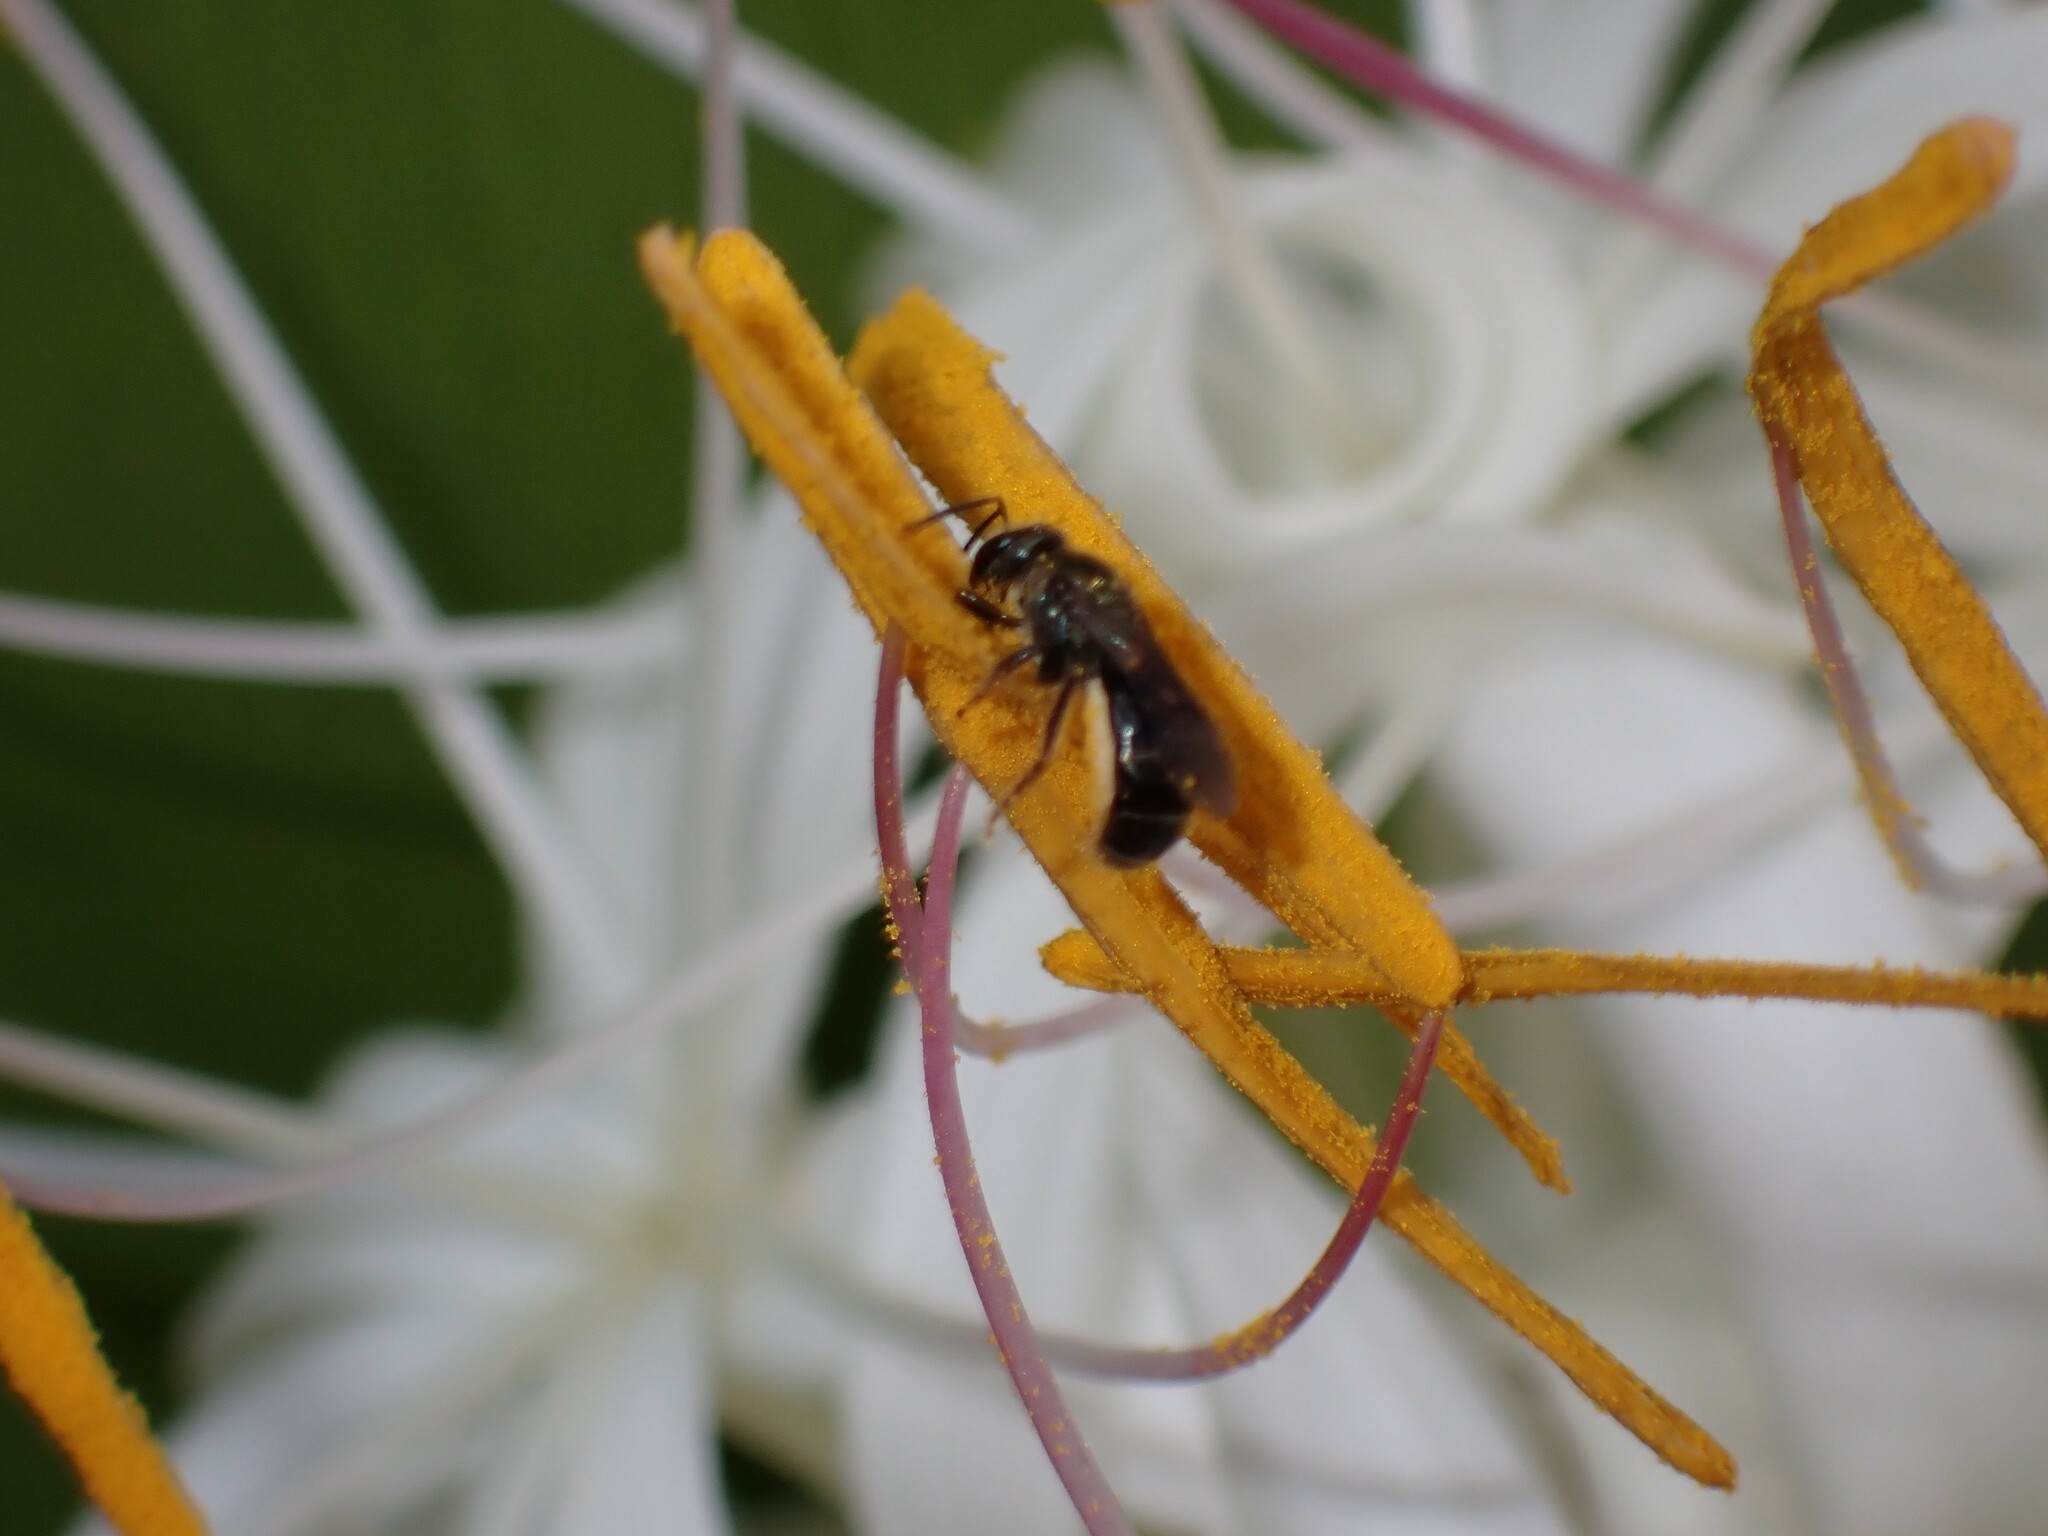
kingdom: Animalia
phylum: Arthropoda
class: Insecta
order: Hymenoptera
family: Halictidae
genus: Lasioglossum
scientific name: Lasioglossum
